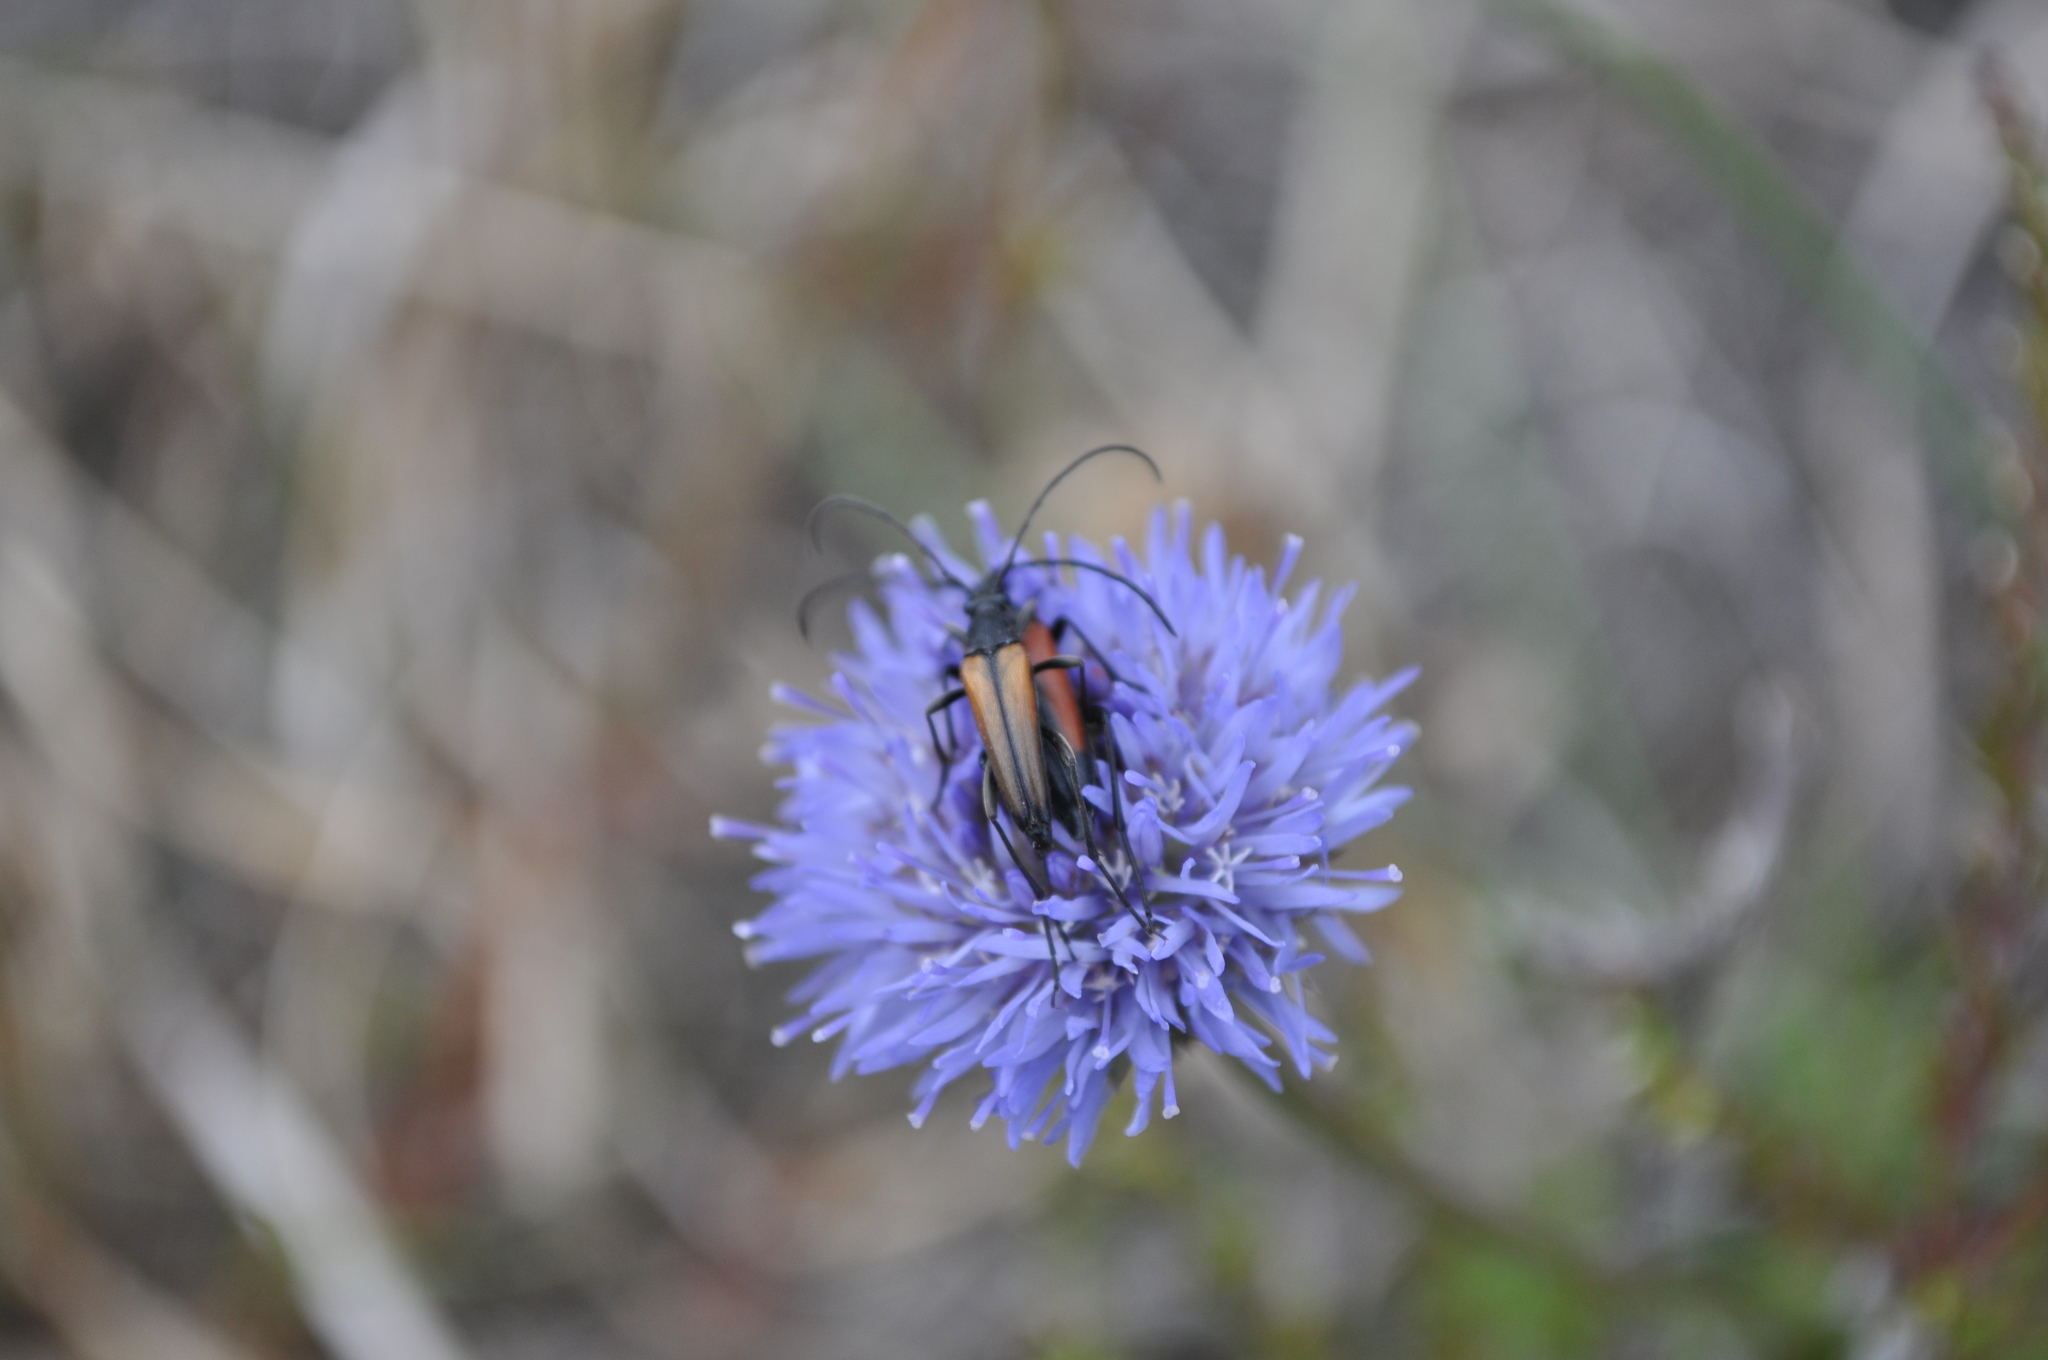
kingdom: Animalia
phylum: Arthropoda
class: Insecta
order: Coleoptera
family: Cerambycidae
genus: Stenurella
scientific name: Stenurella melanura
